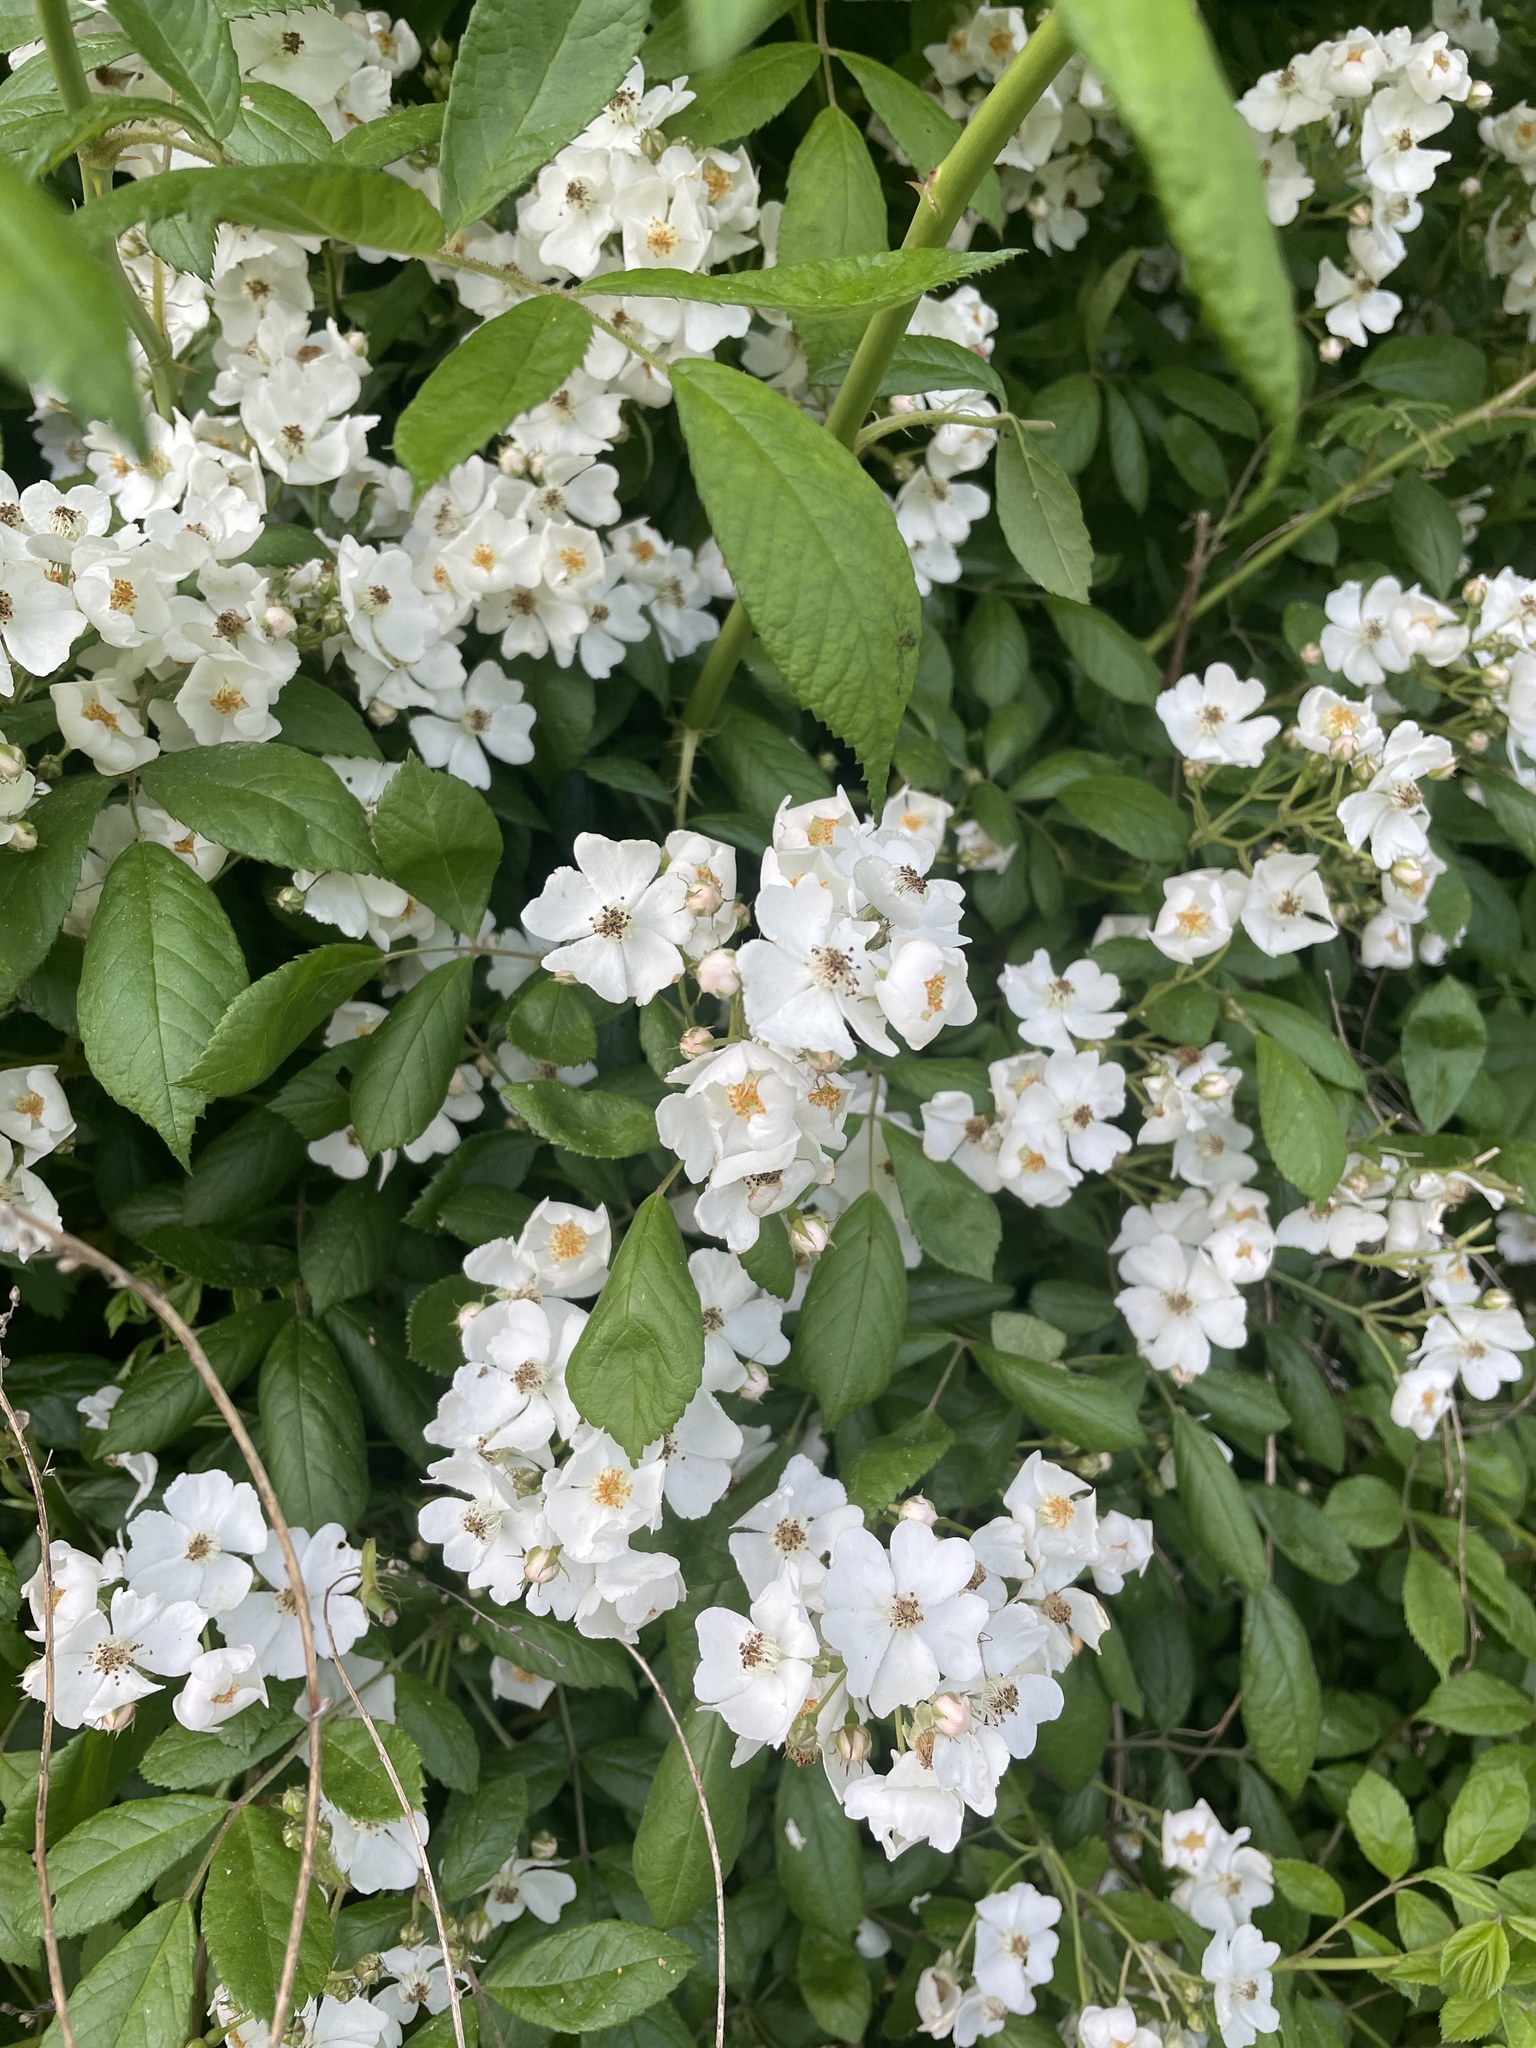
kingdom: Plantae
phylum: Tracheophyta
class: Magnoliopsida
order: Rosales
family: Rosaceae
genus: Rosa
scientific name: Rosa multiflora
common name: Multiflora rose
